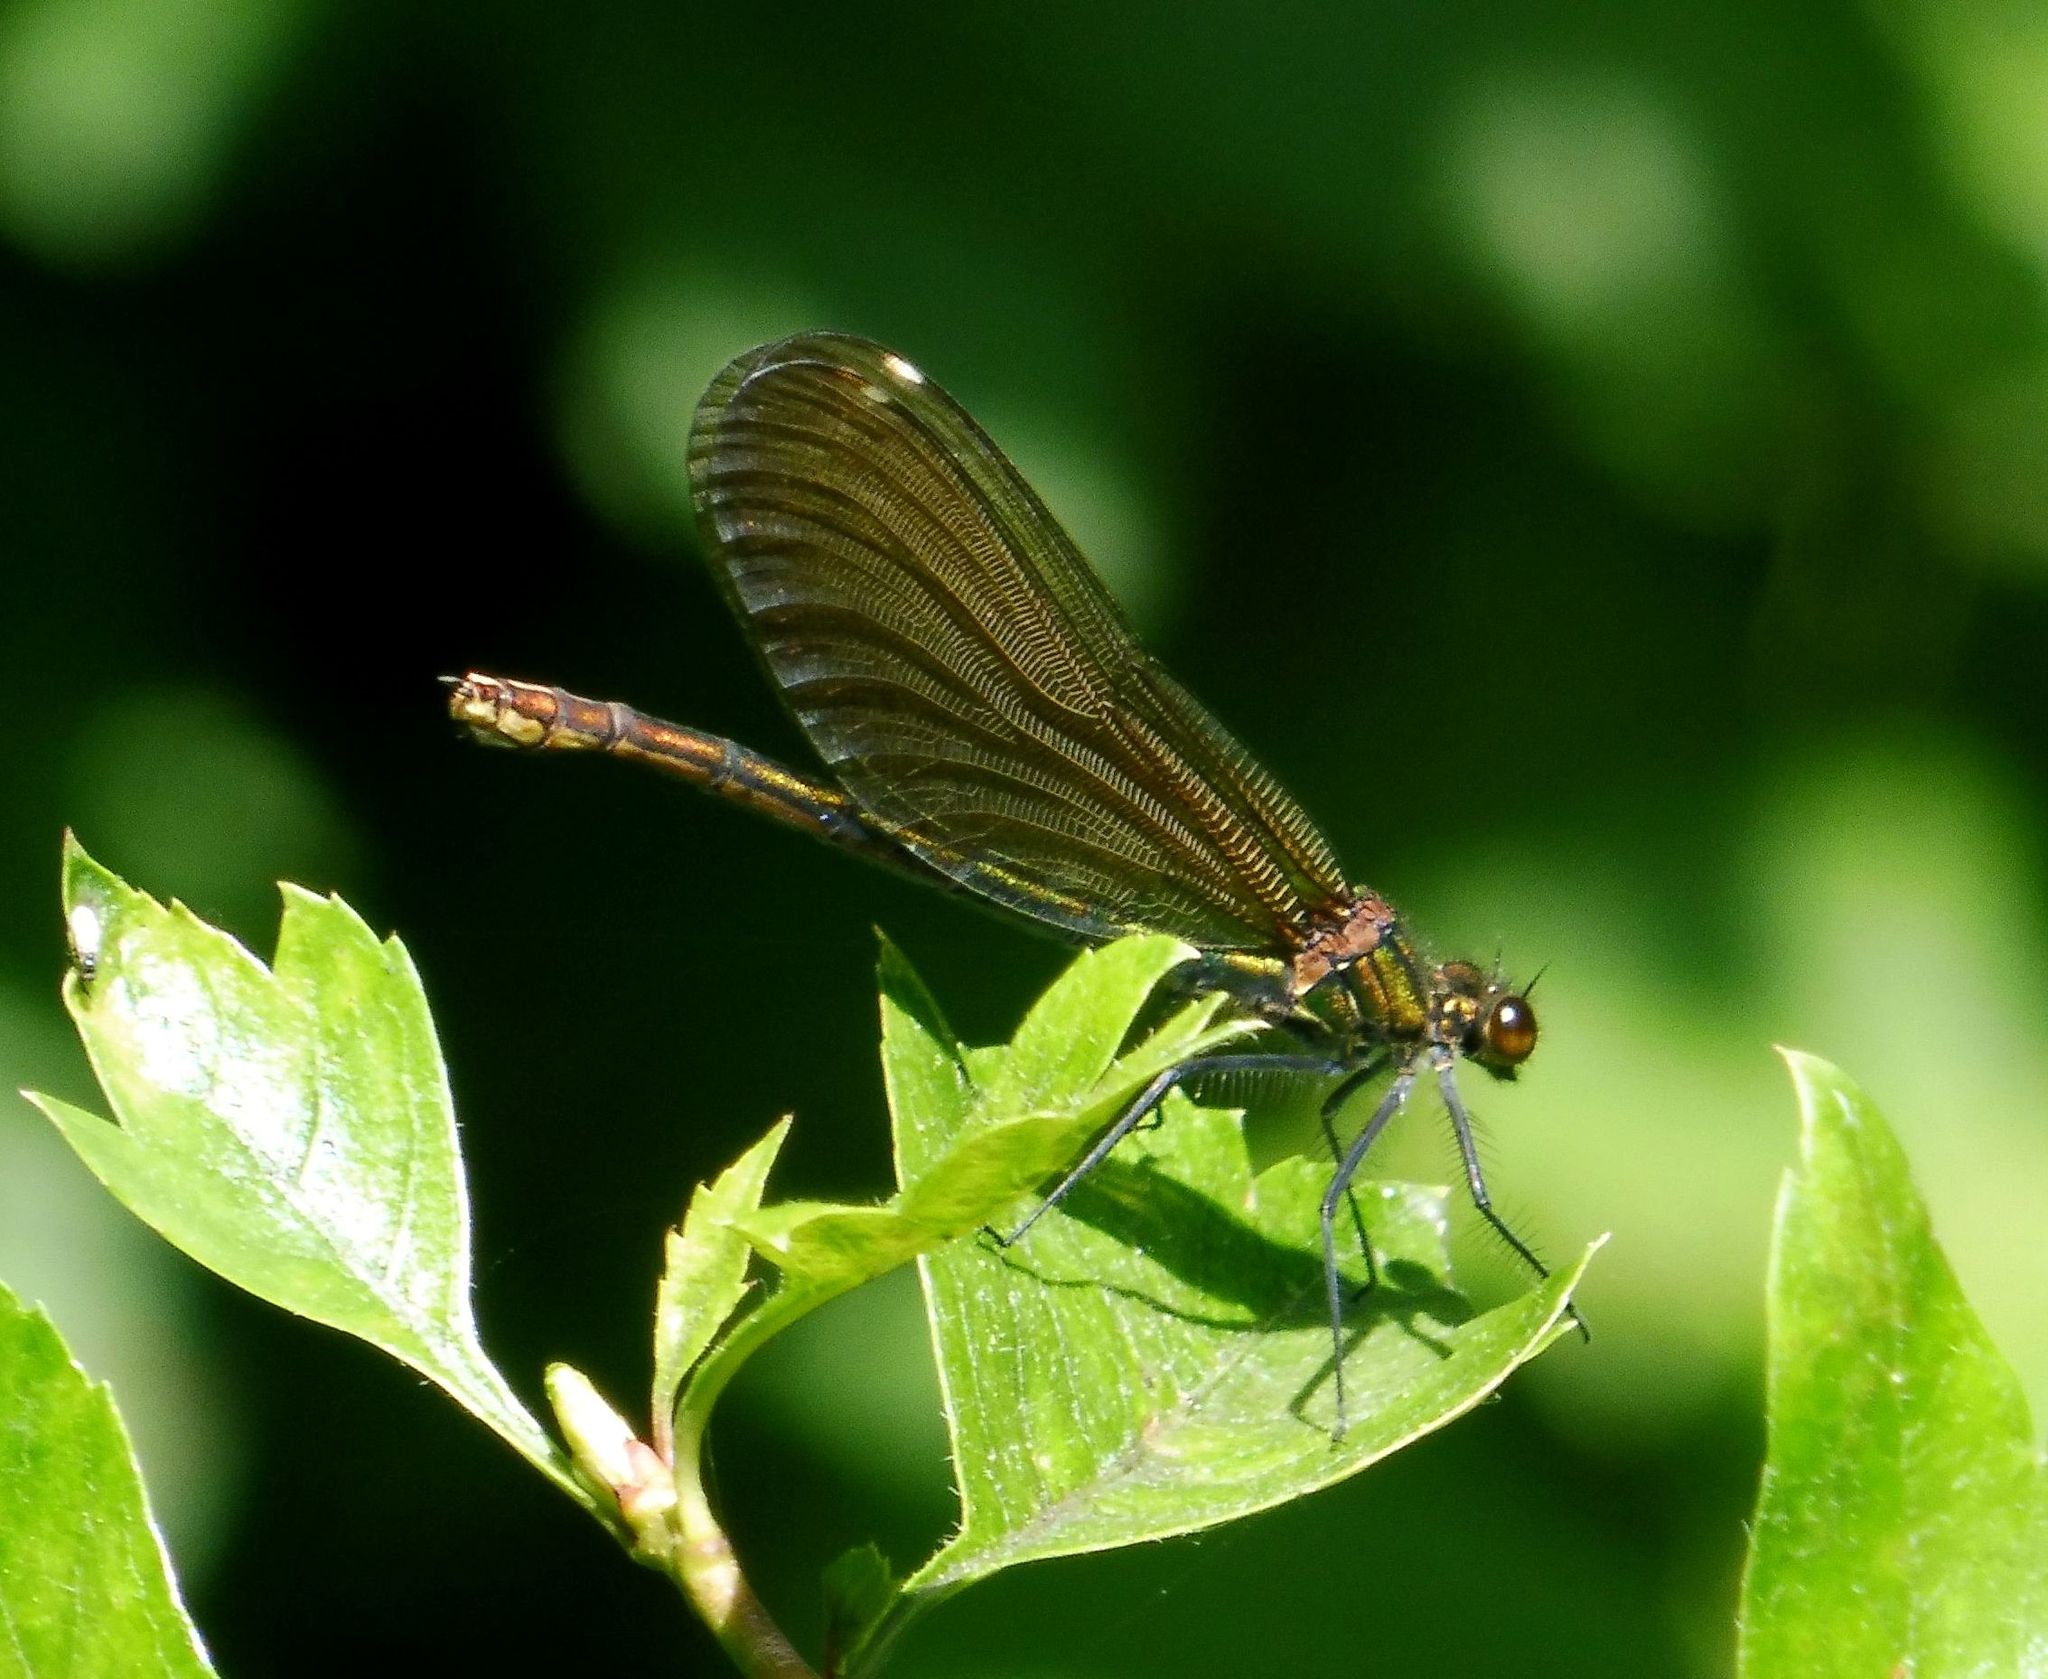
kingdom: Animalia
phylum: Arthropoda
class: Insecta
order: Odonata
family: Calopterygidae
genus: Calopteryx
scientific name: Calopteryx virgo
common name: Beautiful demoiselle
